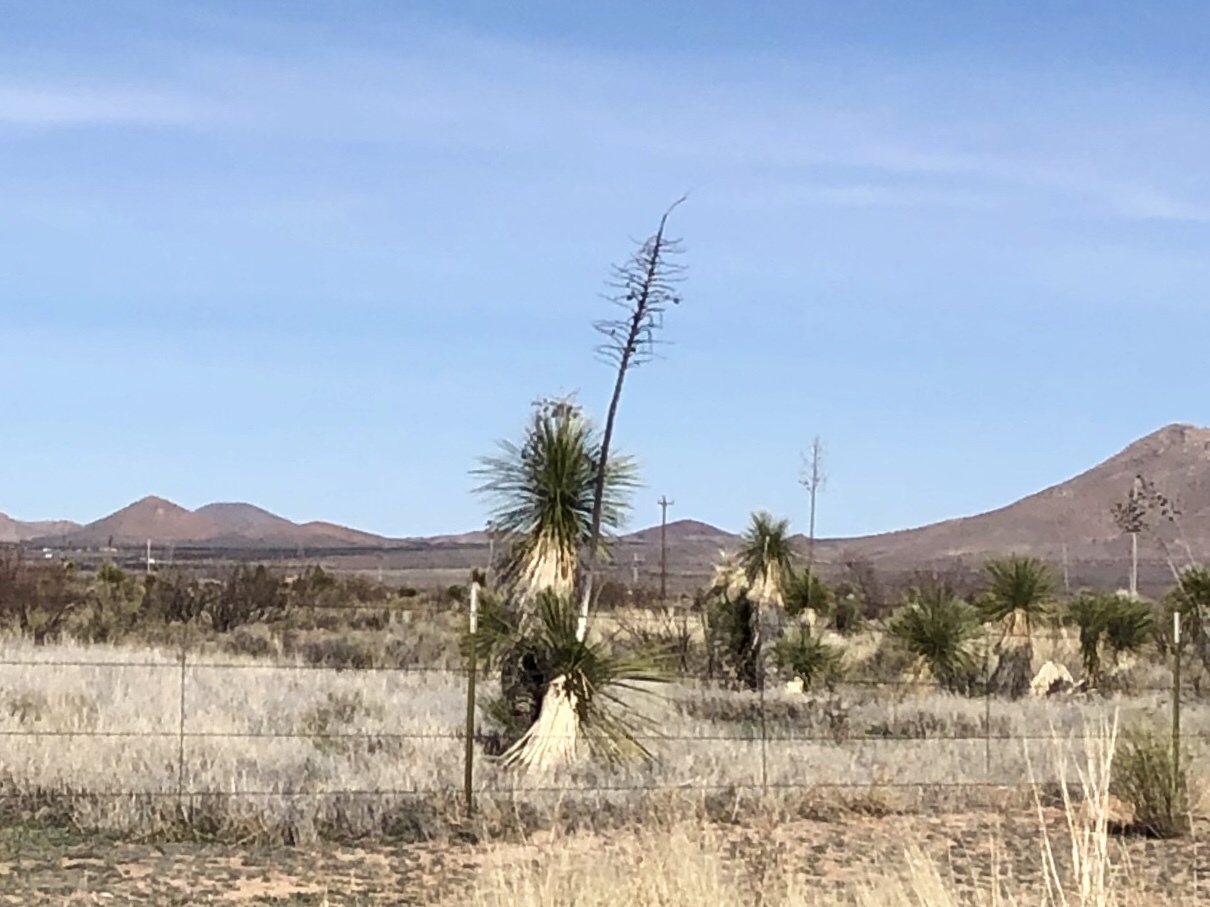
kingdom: Plantae
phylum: Tracheophyta
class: Liliopsida
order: Asparagales
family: Asparagaceae
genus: Yucca
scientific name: Yucca elata
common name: Palmella
